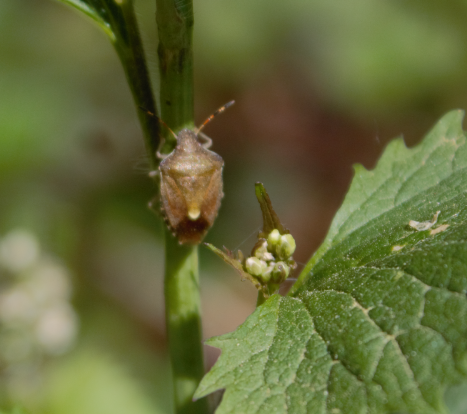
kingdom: Animalia
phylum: Arthropoda
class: Insecta
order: Hemiptera
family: Pentatomidae
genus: Holcostethus
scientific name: Holcostethus strictus
